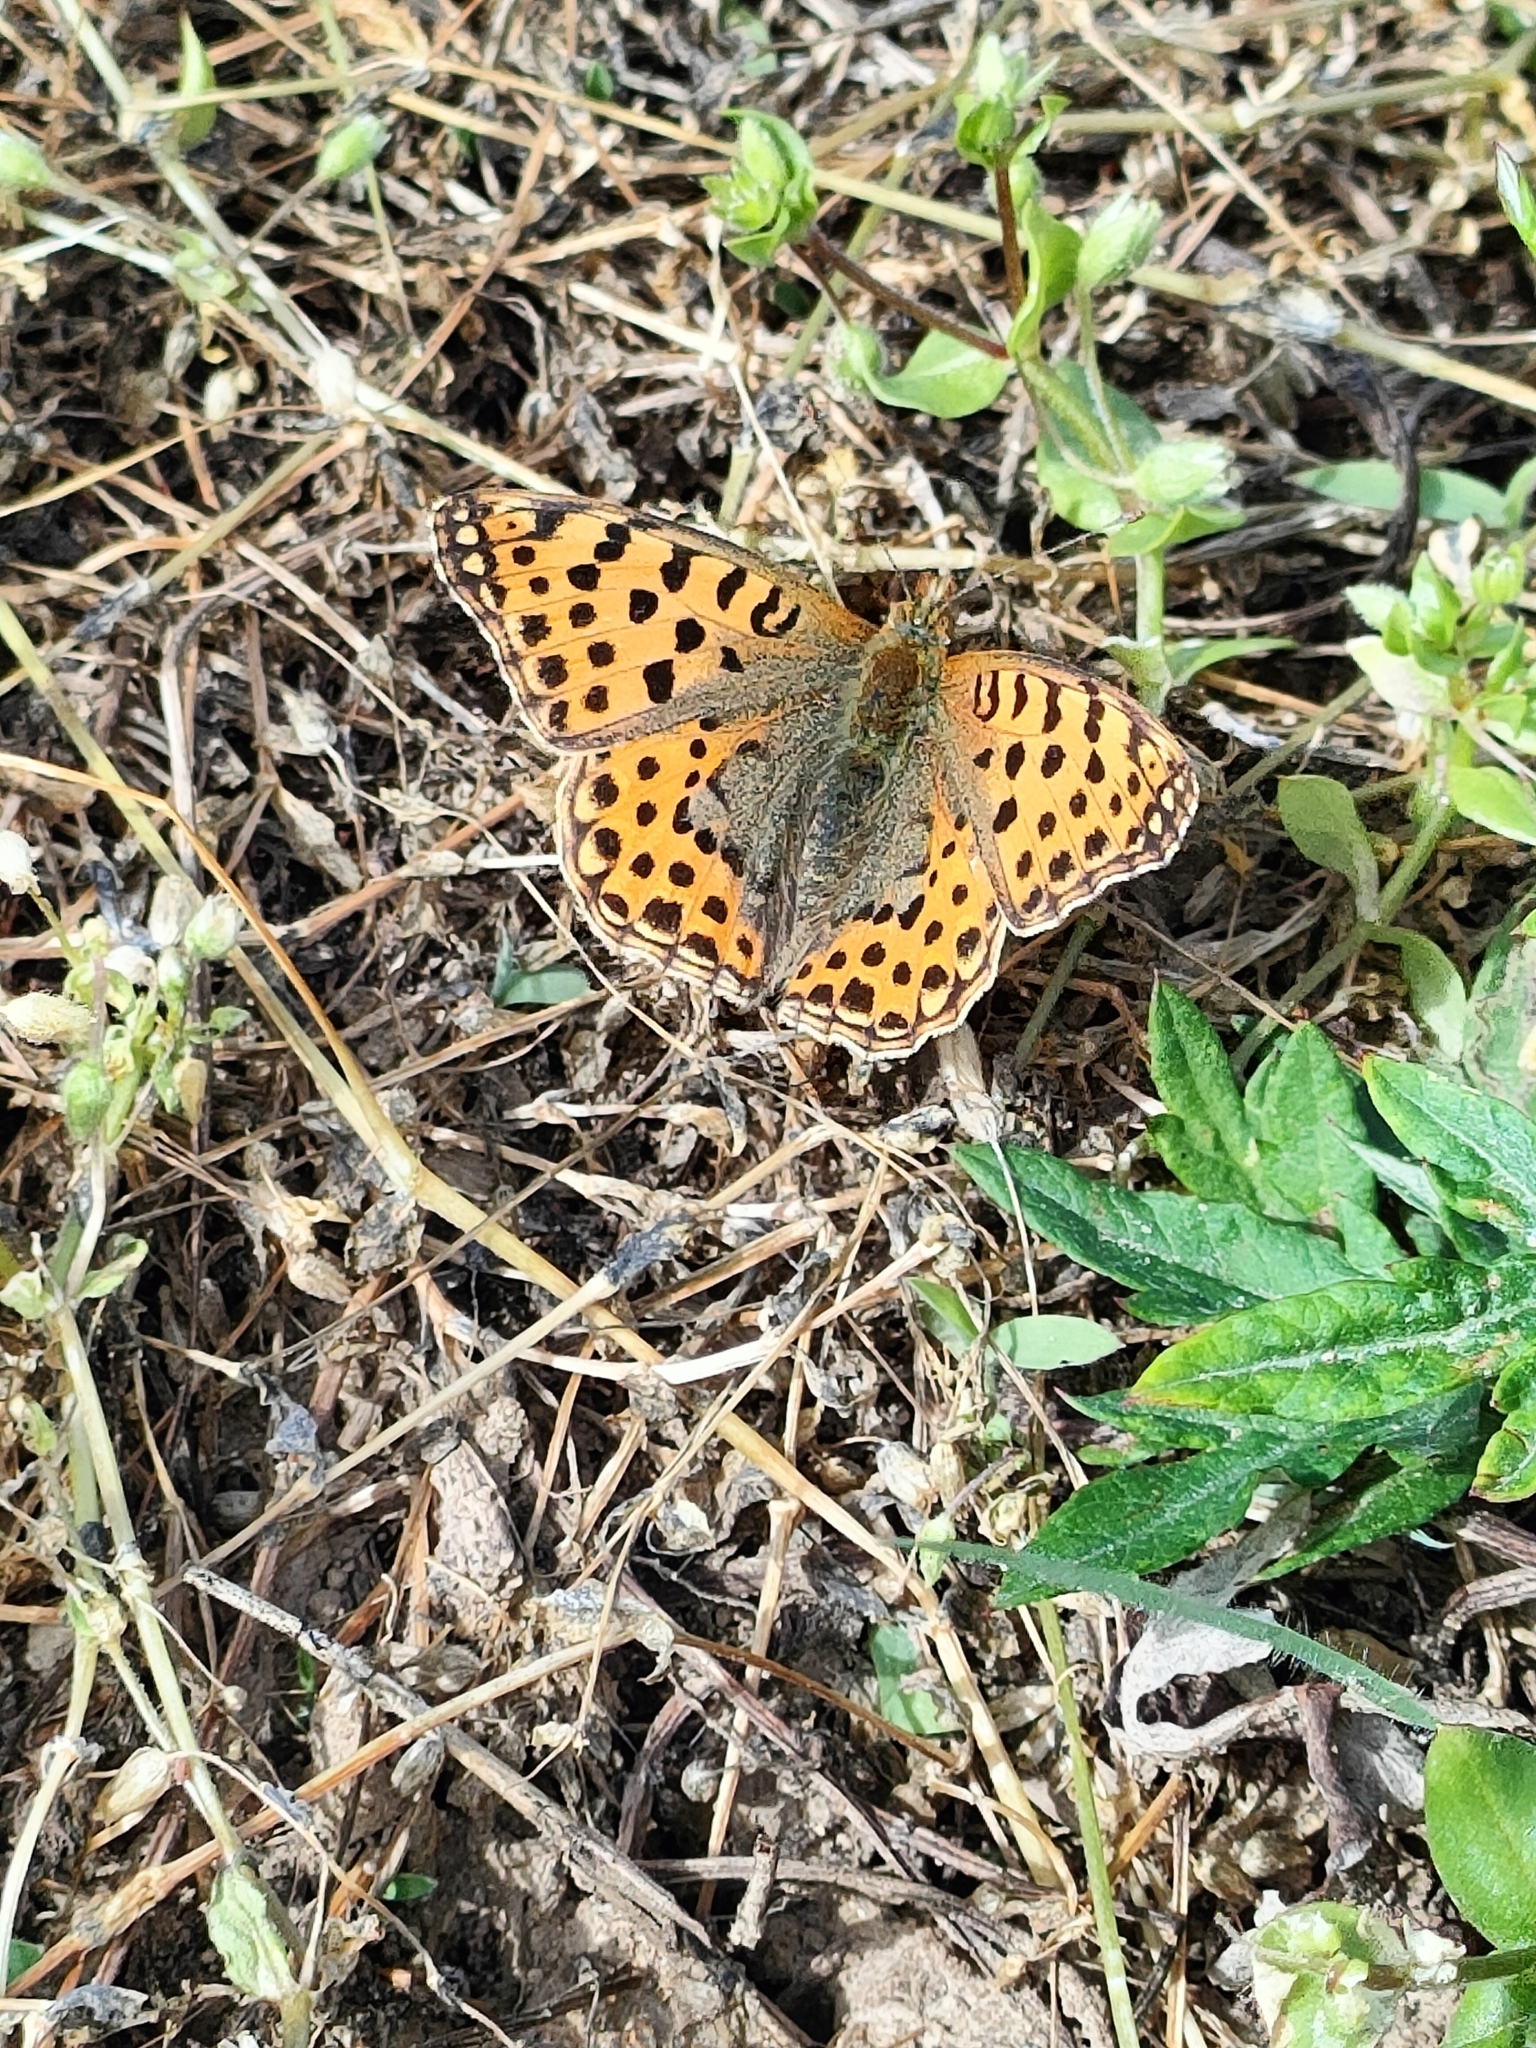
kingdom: Animalia
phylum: Arthropoda
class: Insecta
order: Lepidoptera
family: Nymphalidae
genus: Issoria
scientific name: Issoria lathonia
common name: Queen of spain fritillary
